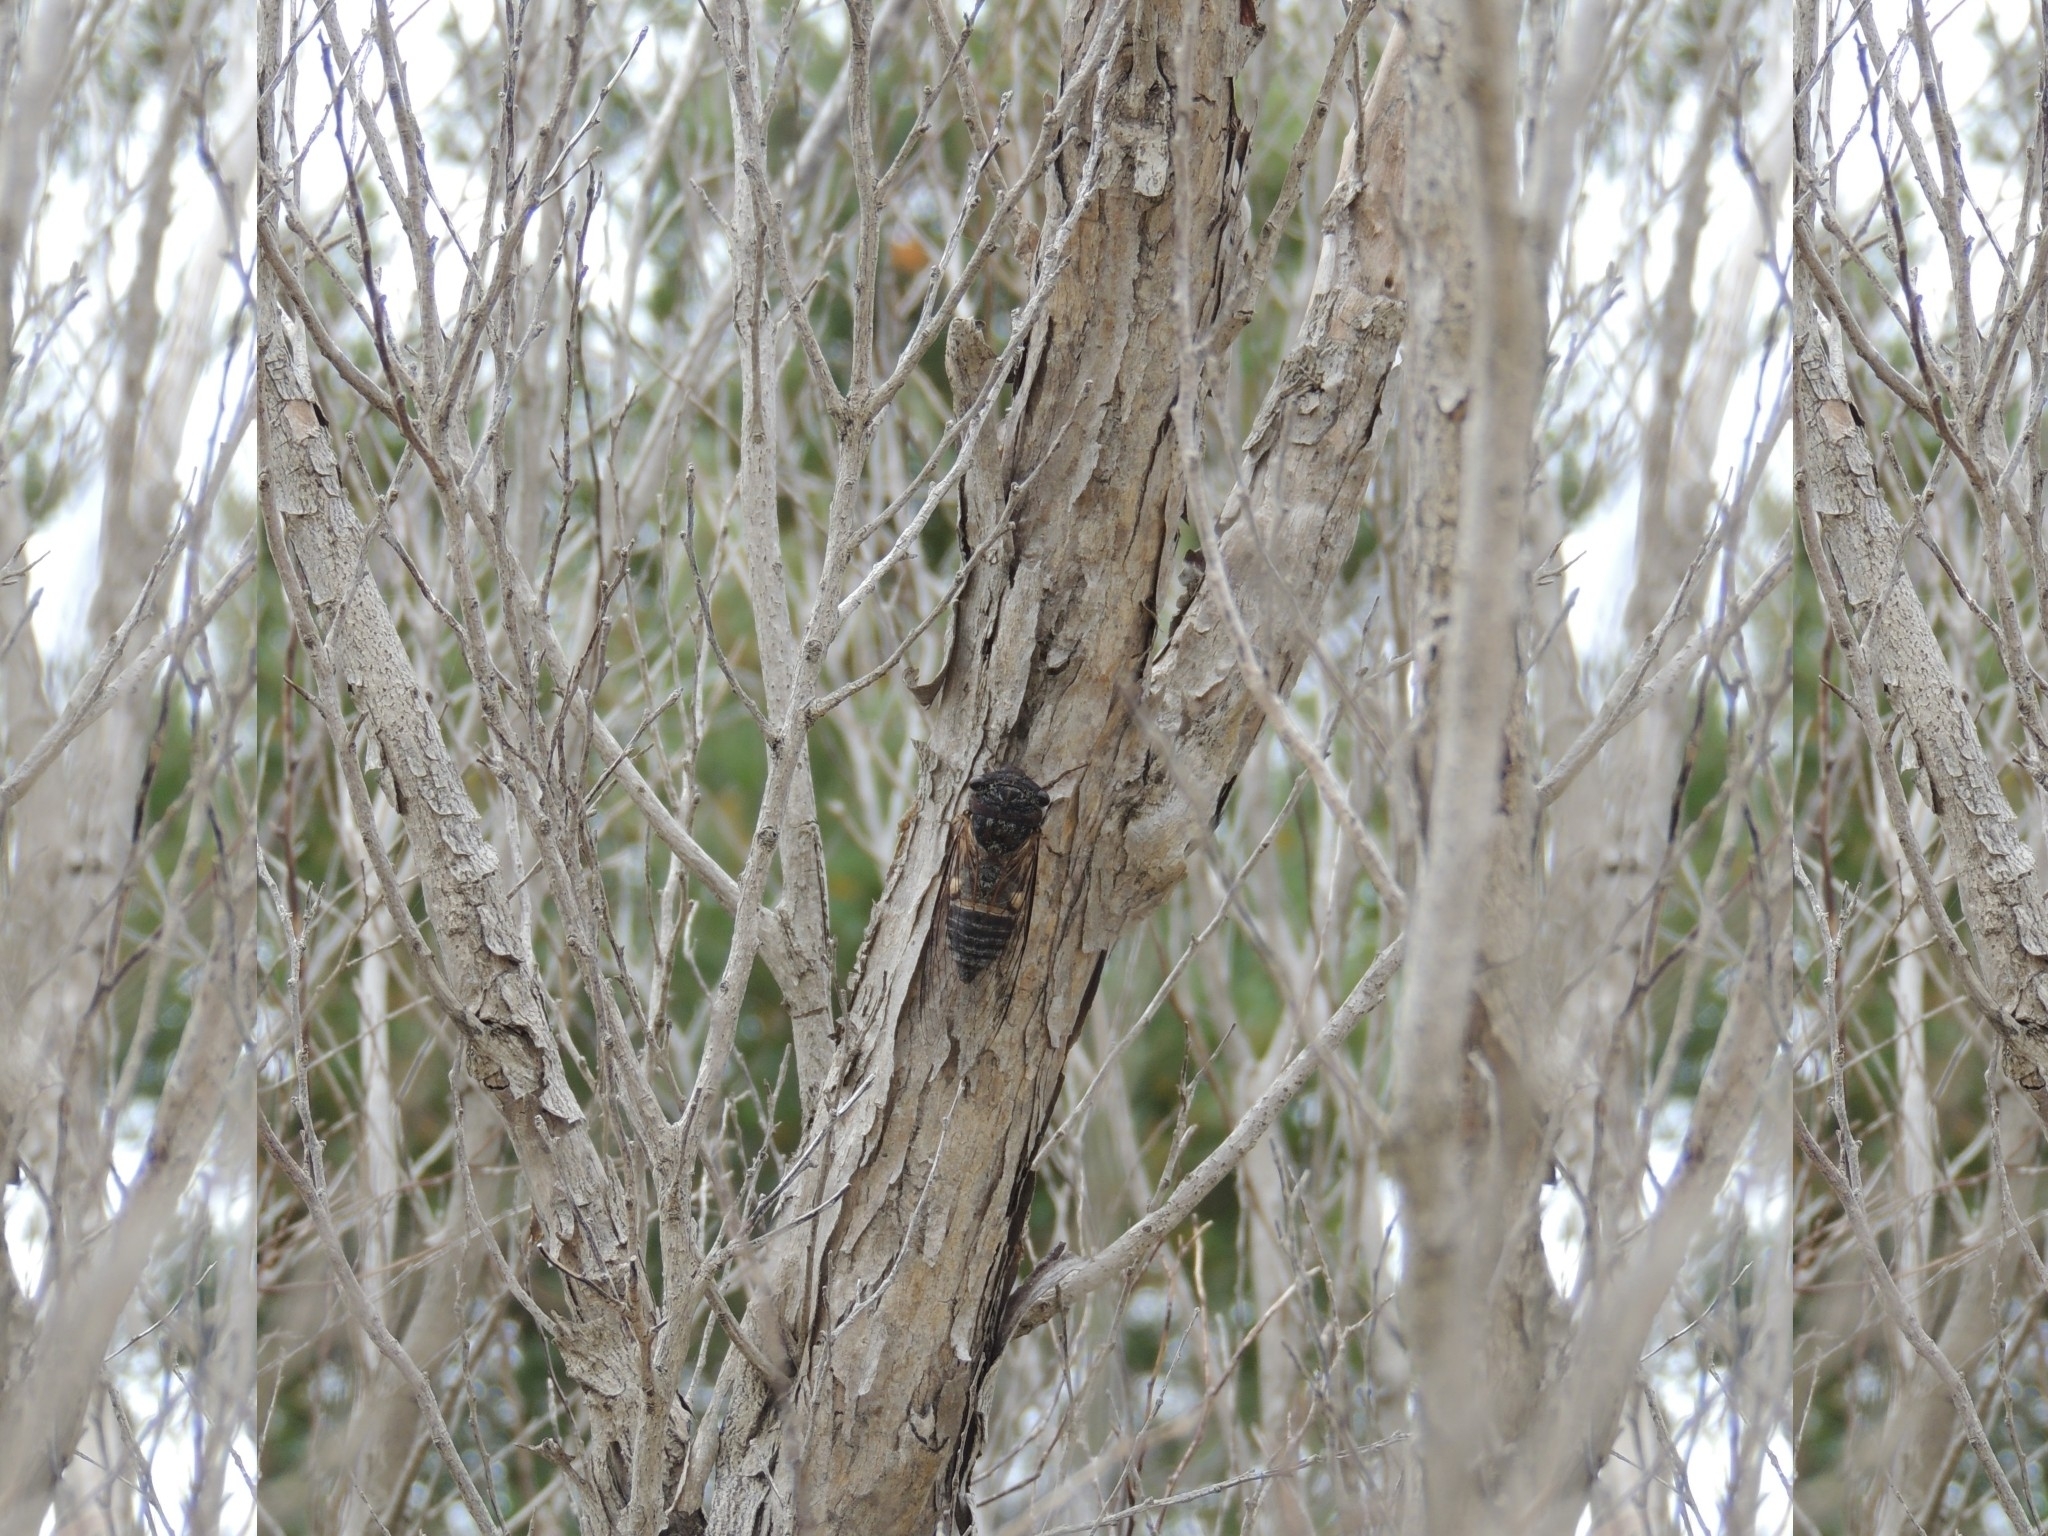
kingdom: Animalia
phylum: Arthropoda
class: Insecta
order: Hemiptera
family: Cicadidae
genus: Psaltoda
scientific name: Psaltoda harrisii
